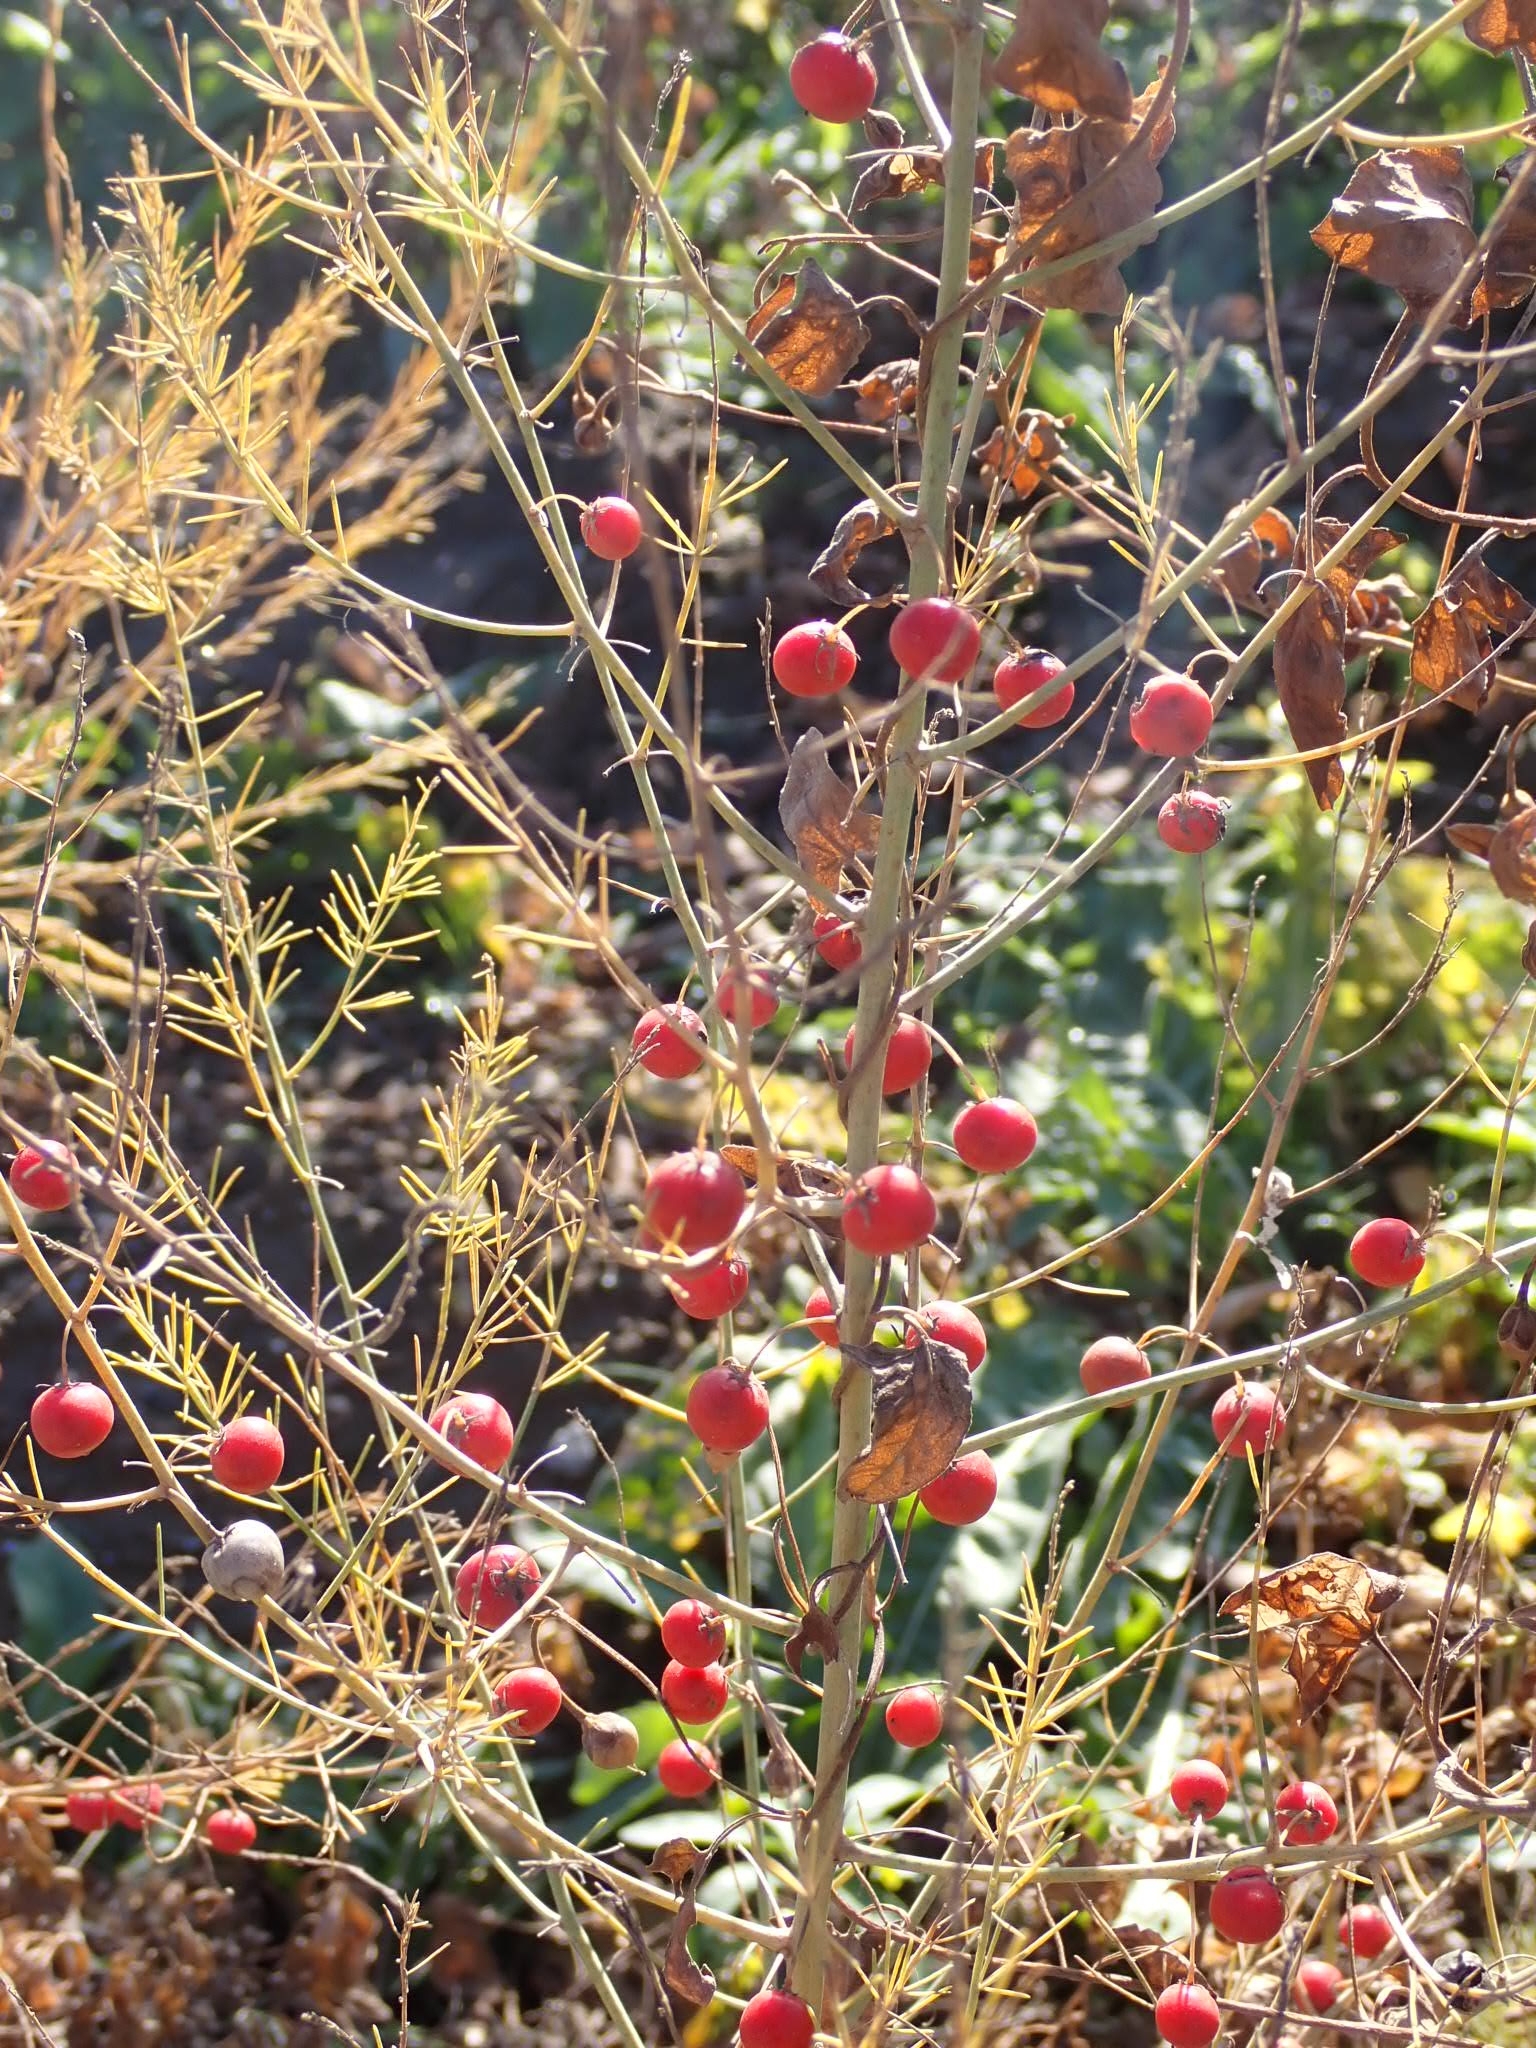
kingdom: Plantae
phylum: Tracheophyta
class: Liliopsida
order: Asparagales
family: Asparagaceae
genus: Asparagus
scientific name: Asparagus officinalis
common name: Garden asparagus
